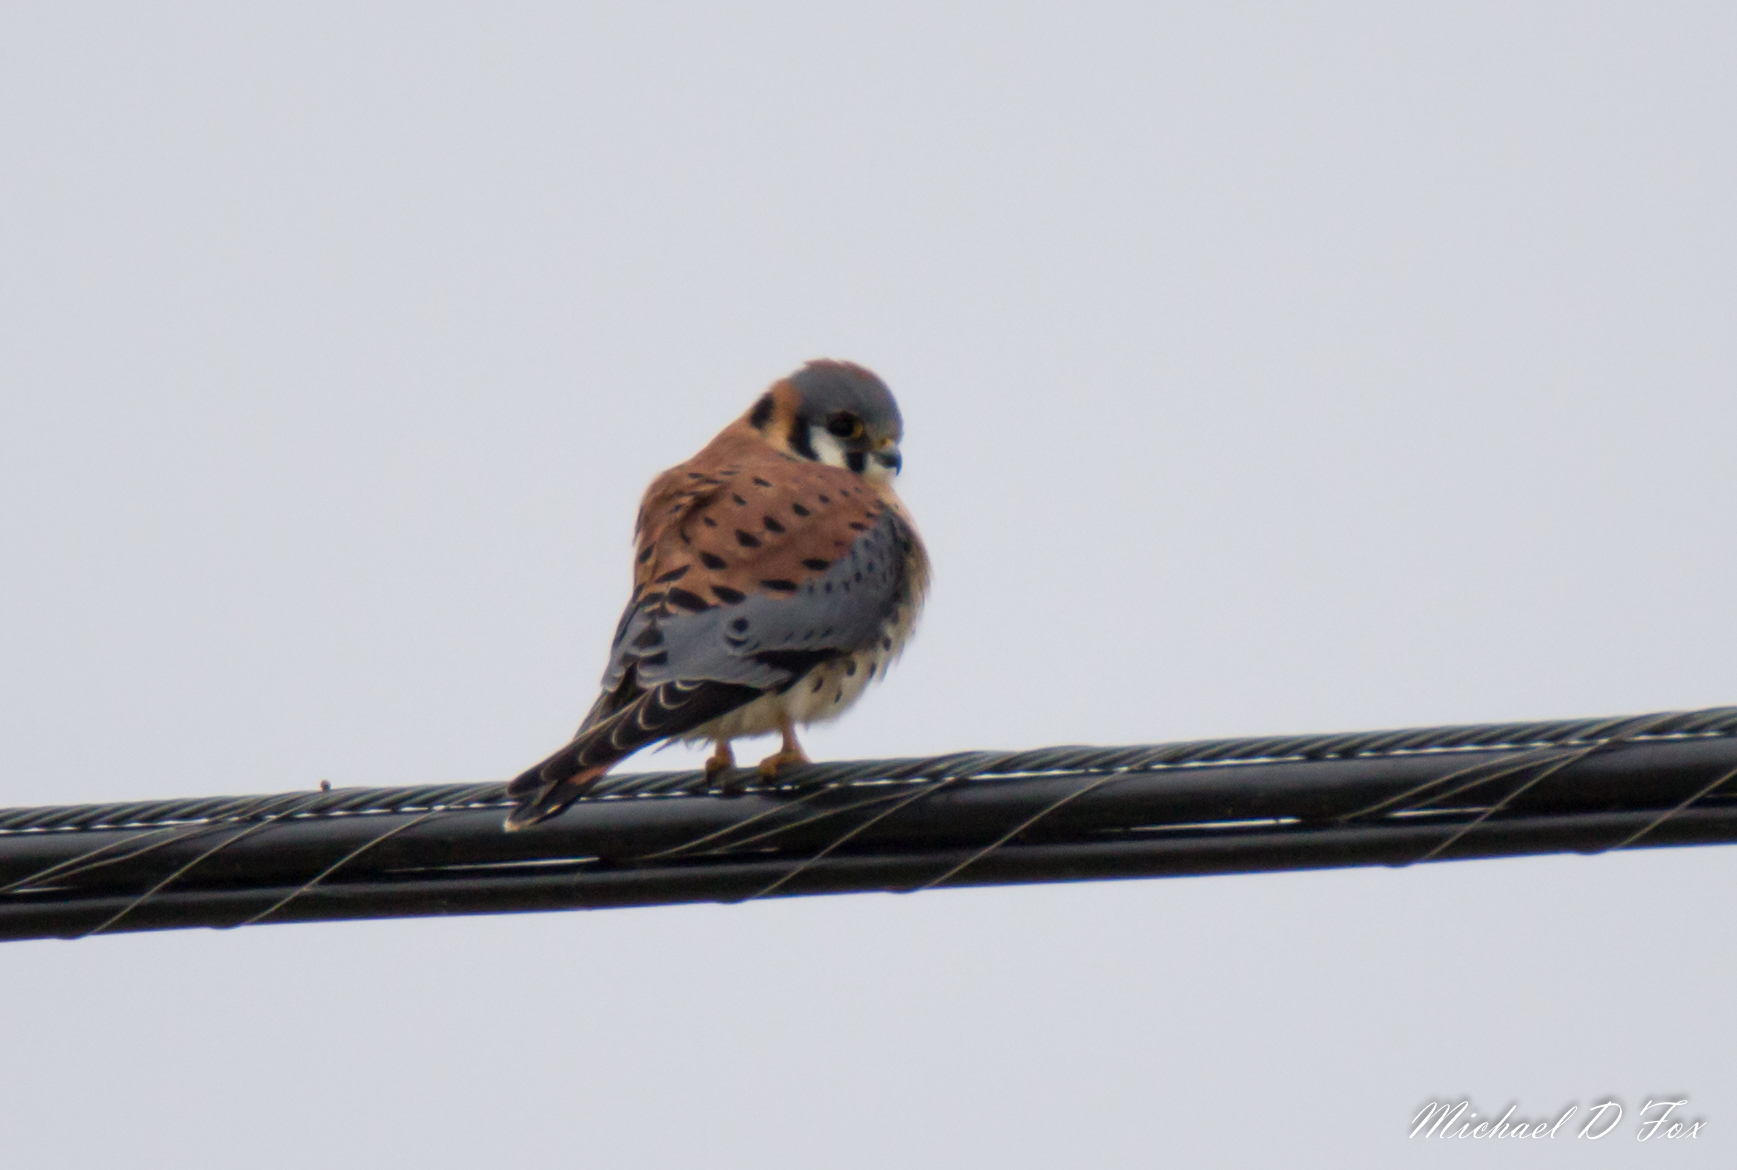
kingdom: Animalia
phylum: Chordata
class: Aves
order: Falconiformes
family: Falconidae
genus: Falco
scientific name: Falco sparverius
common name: American kestrel
